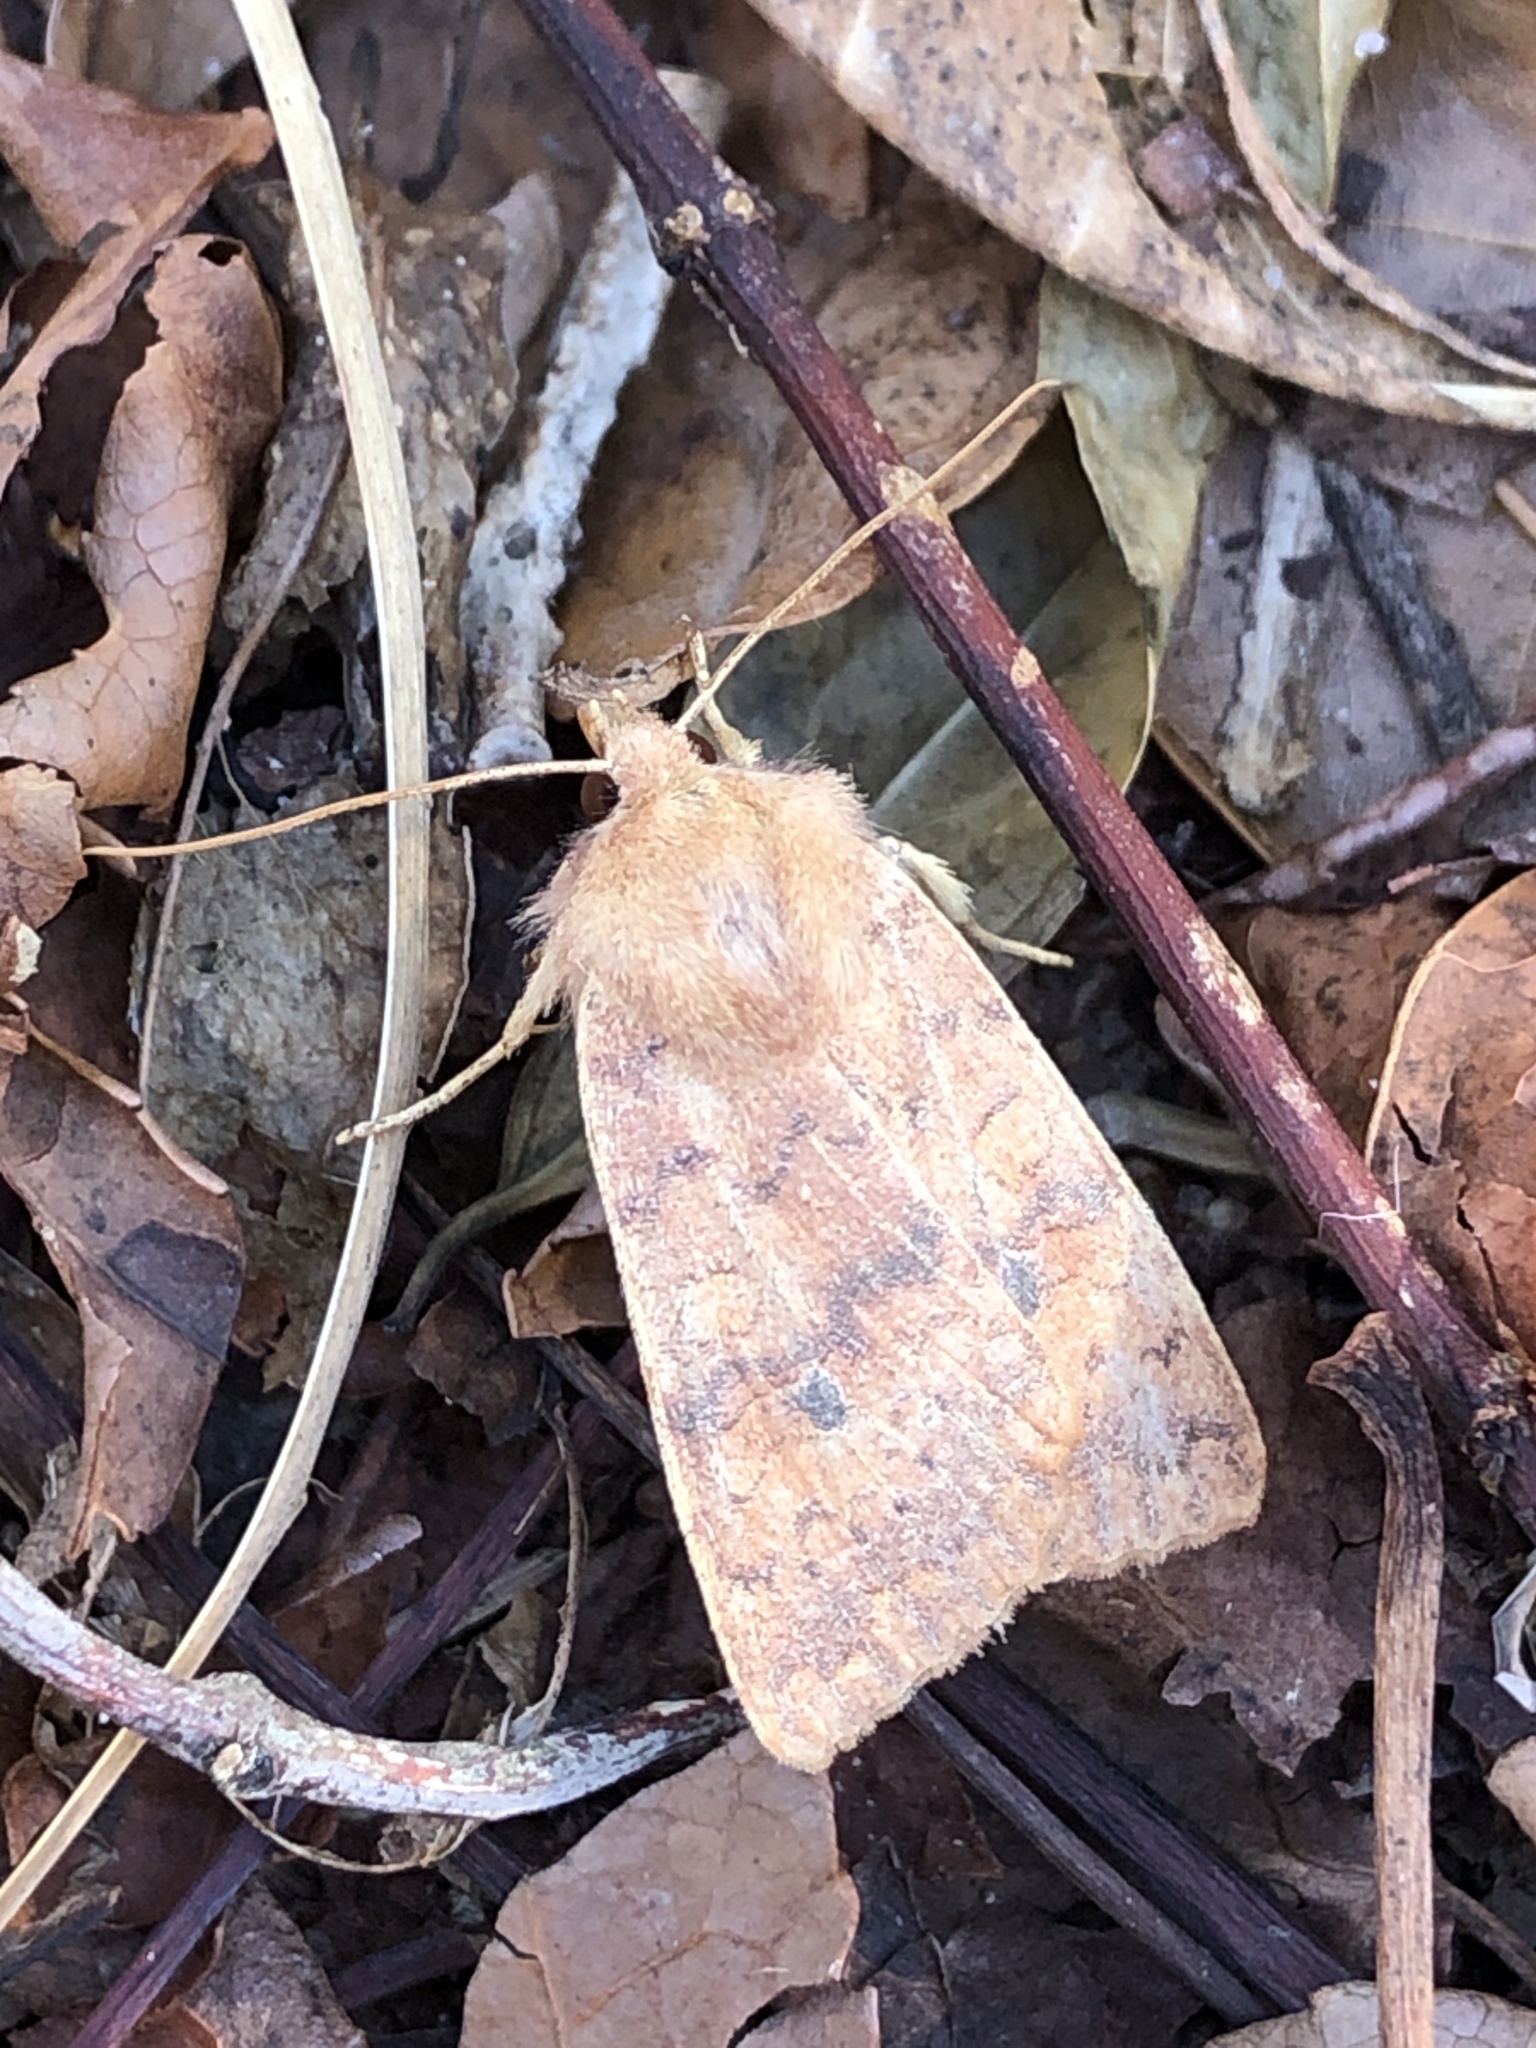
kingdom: Animalia
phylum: Arthropoda
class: Insecta
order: Lepidoptera
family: Noctuidae
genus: Agrochola
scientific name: Agrochola bicolorago
